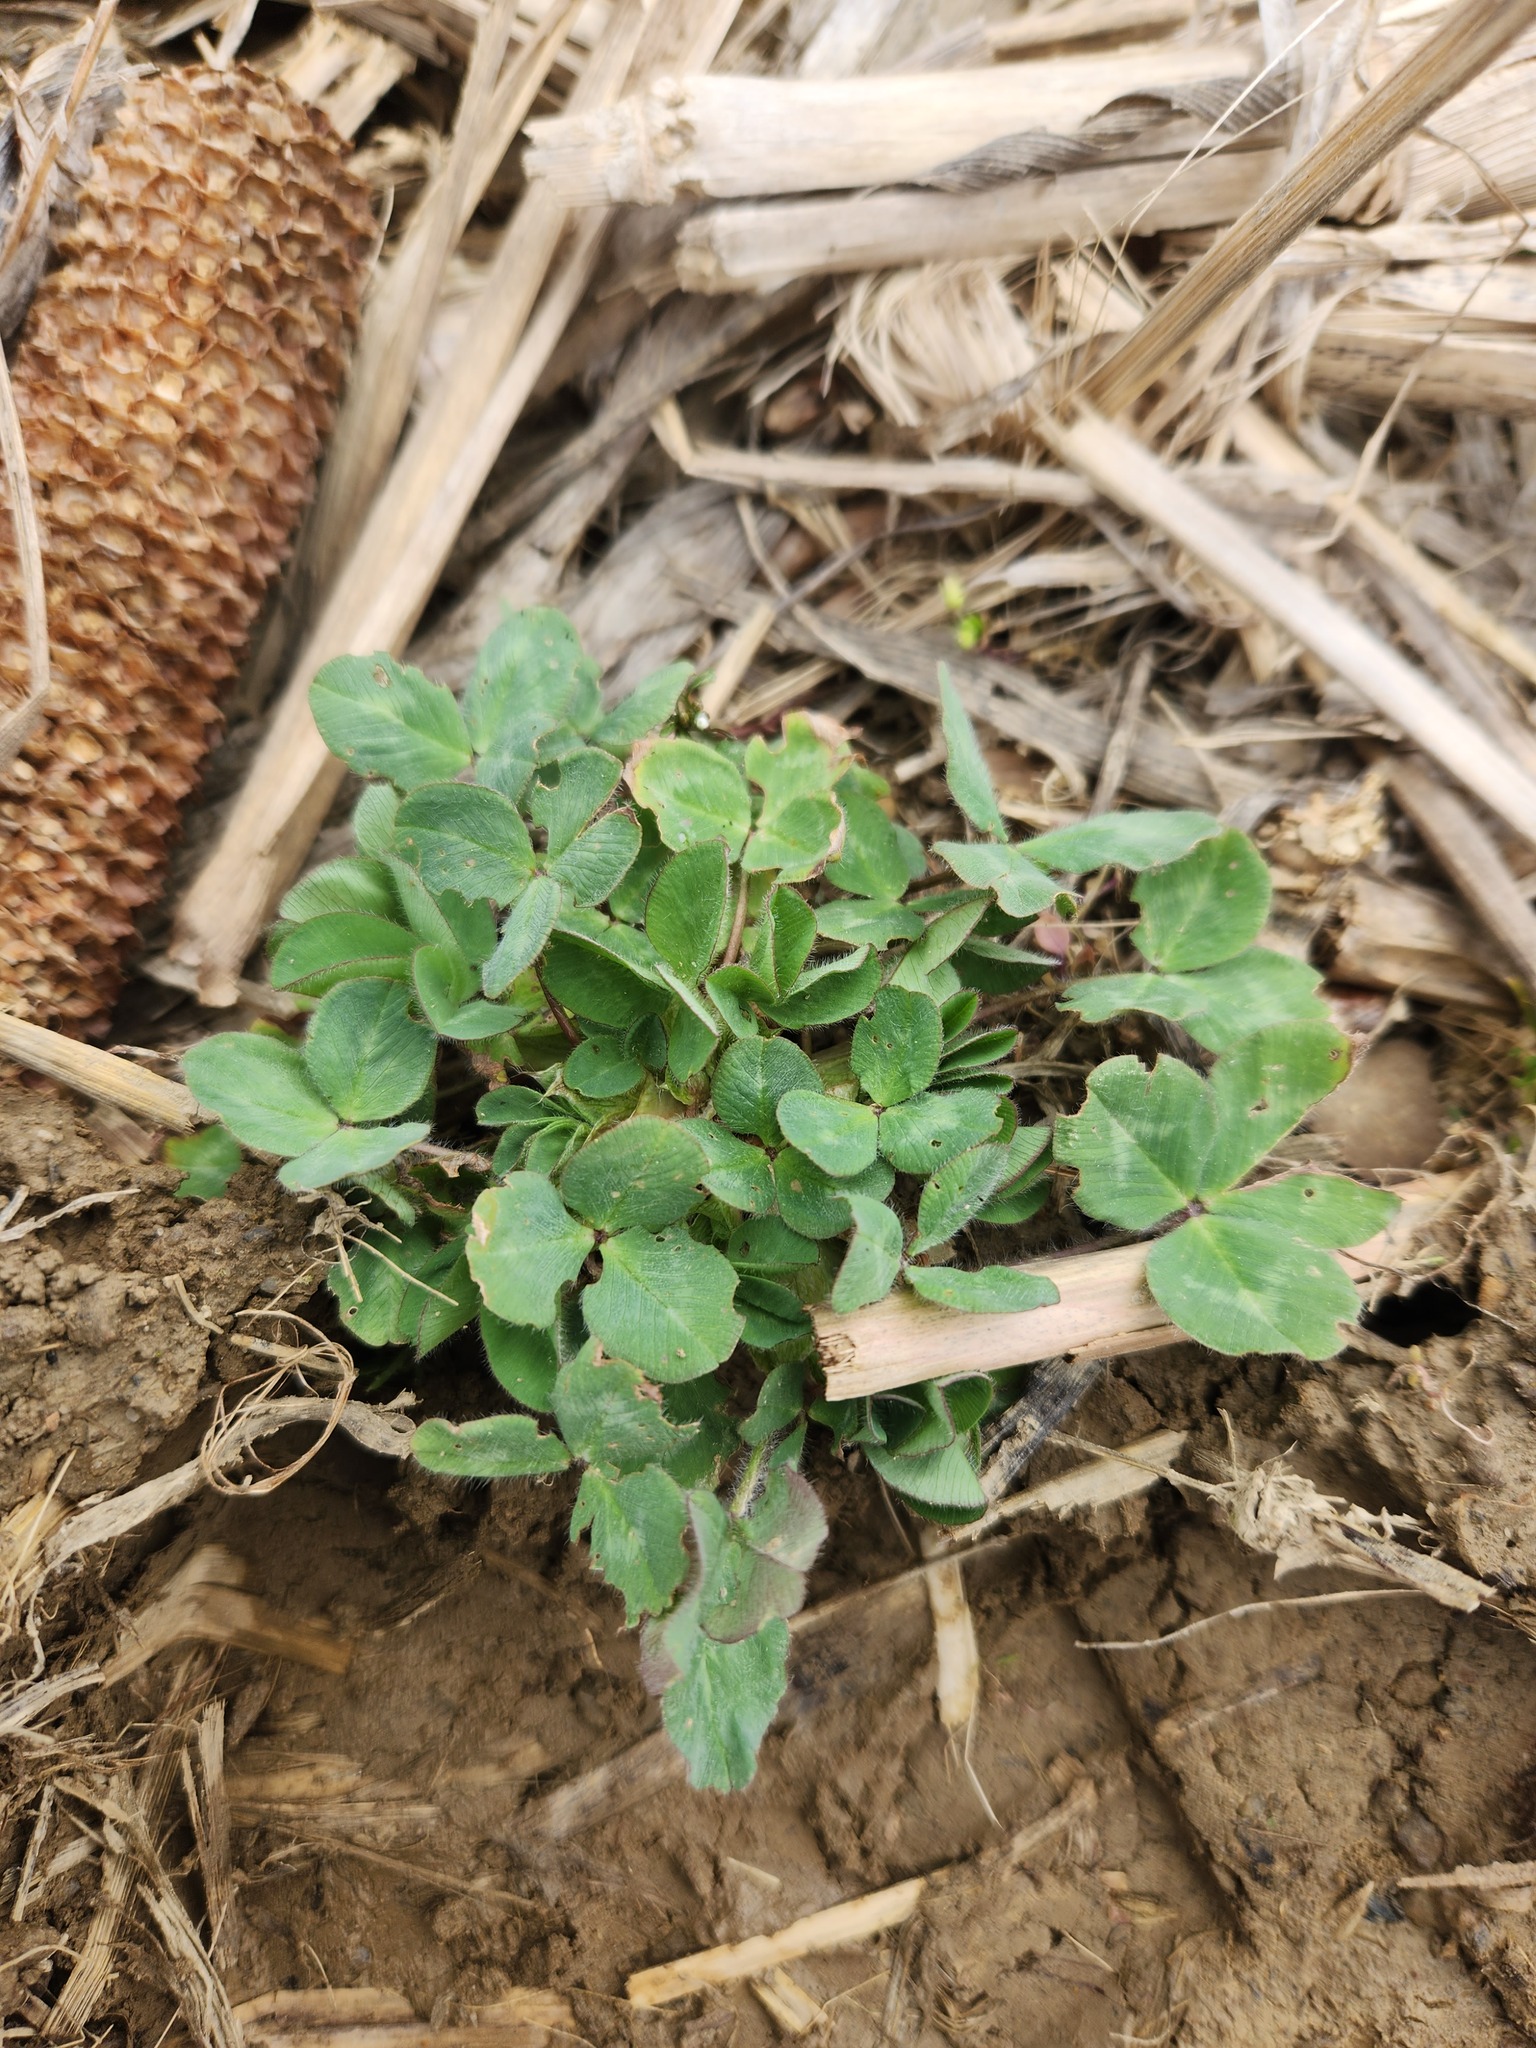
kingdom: Plantae
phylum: Tracheophyta
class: Magnoliopsida
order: Fabales
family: Fabaceae
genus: Trifolium
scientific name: Trifolium pratense
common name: Red clover
